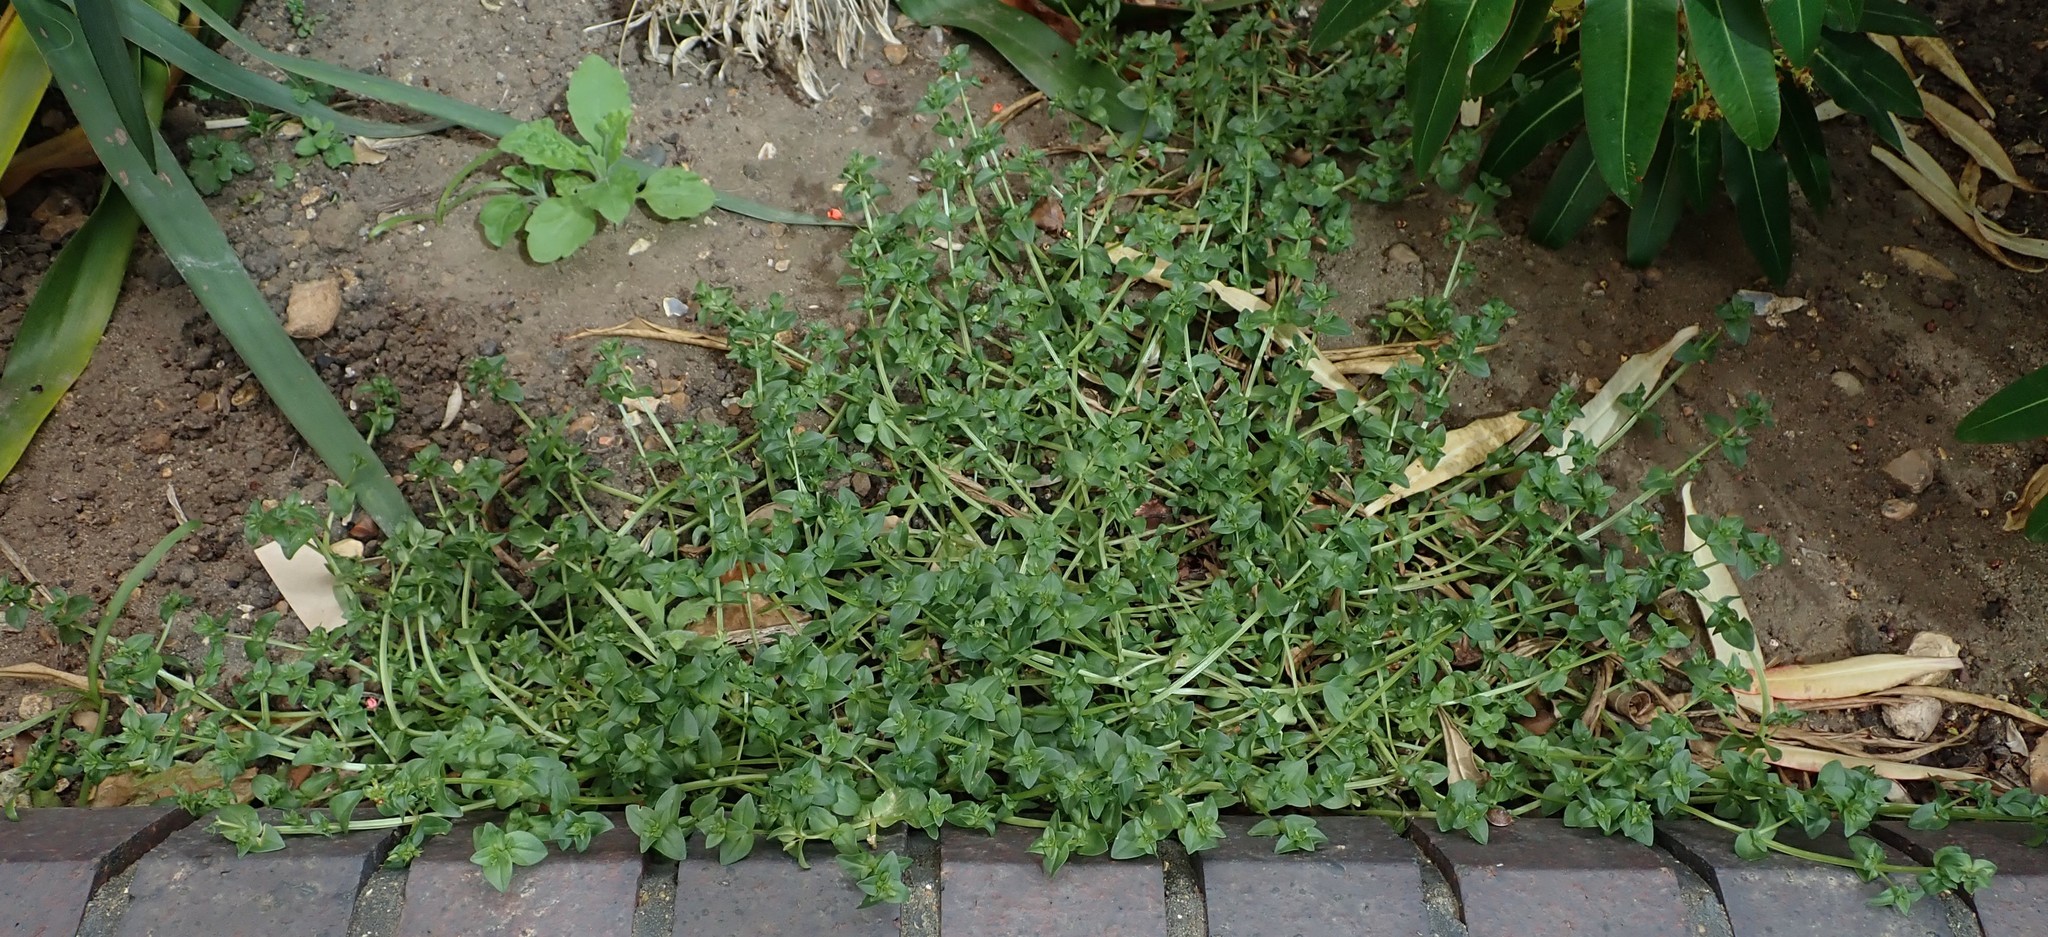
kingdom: Plantae
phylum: Tracheophyta
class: Magnoliopsida
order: Ericales
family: Primulaceae
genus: Lysimachia
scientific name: Lysimachia arvensis
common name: Scarlet pimpernel
